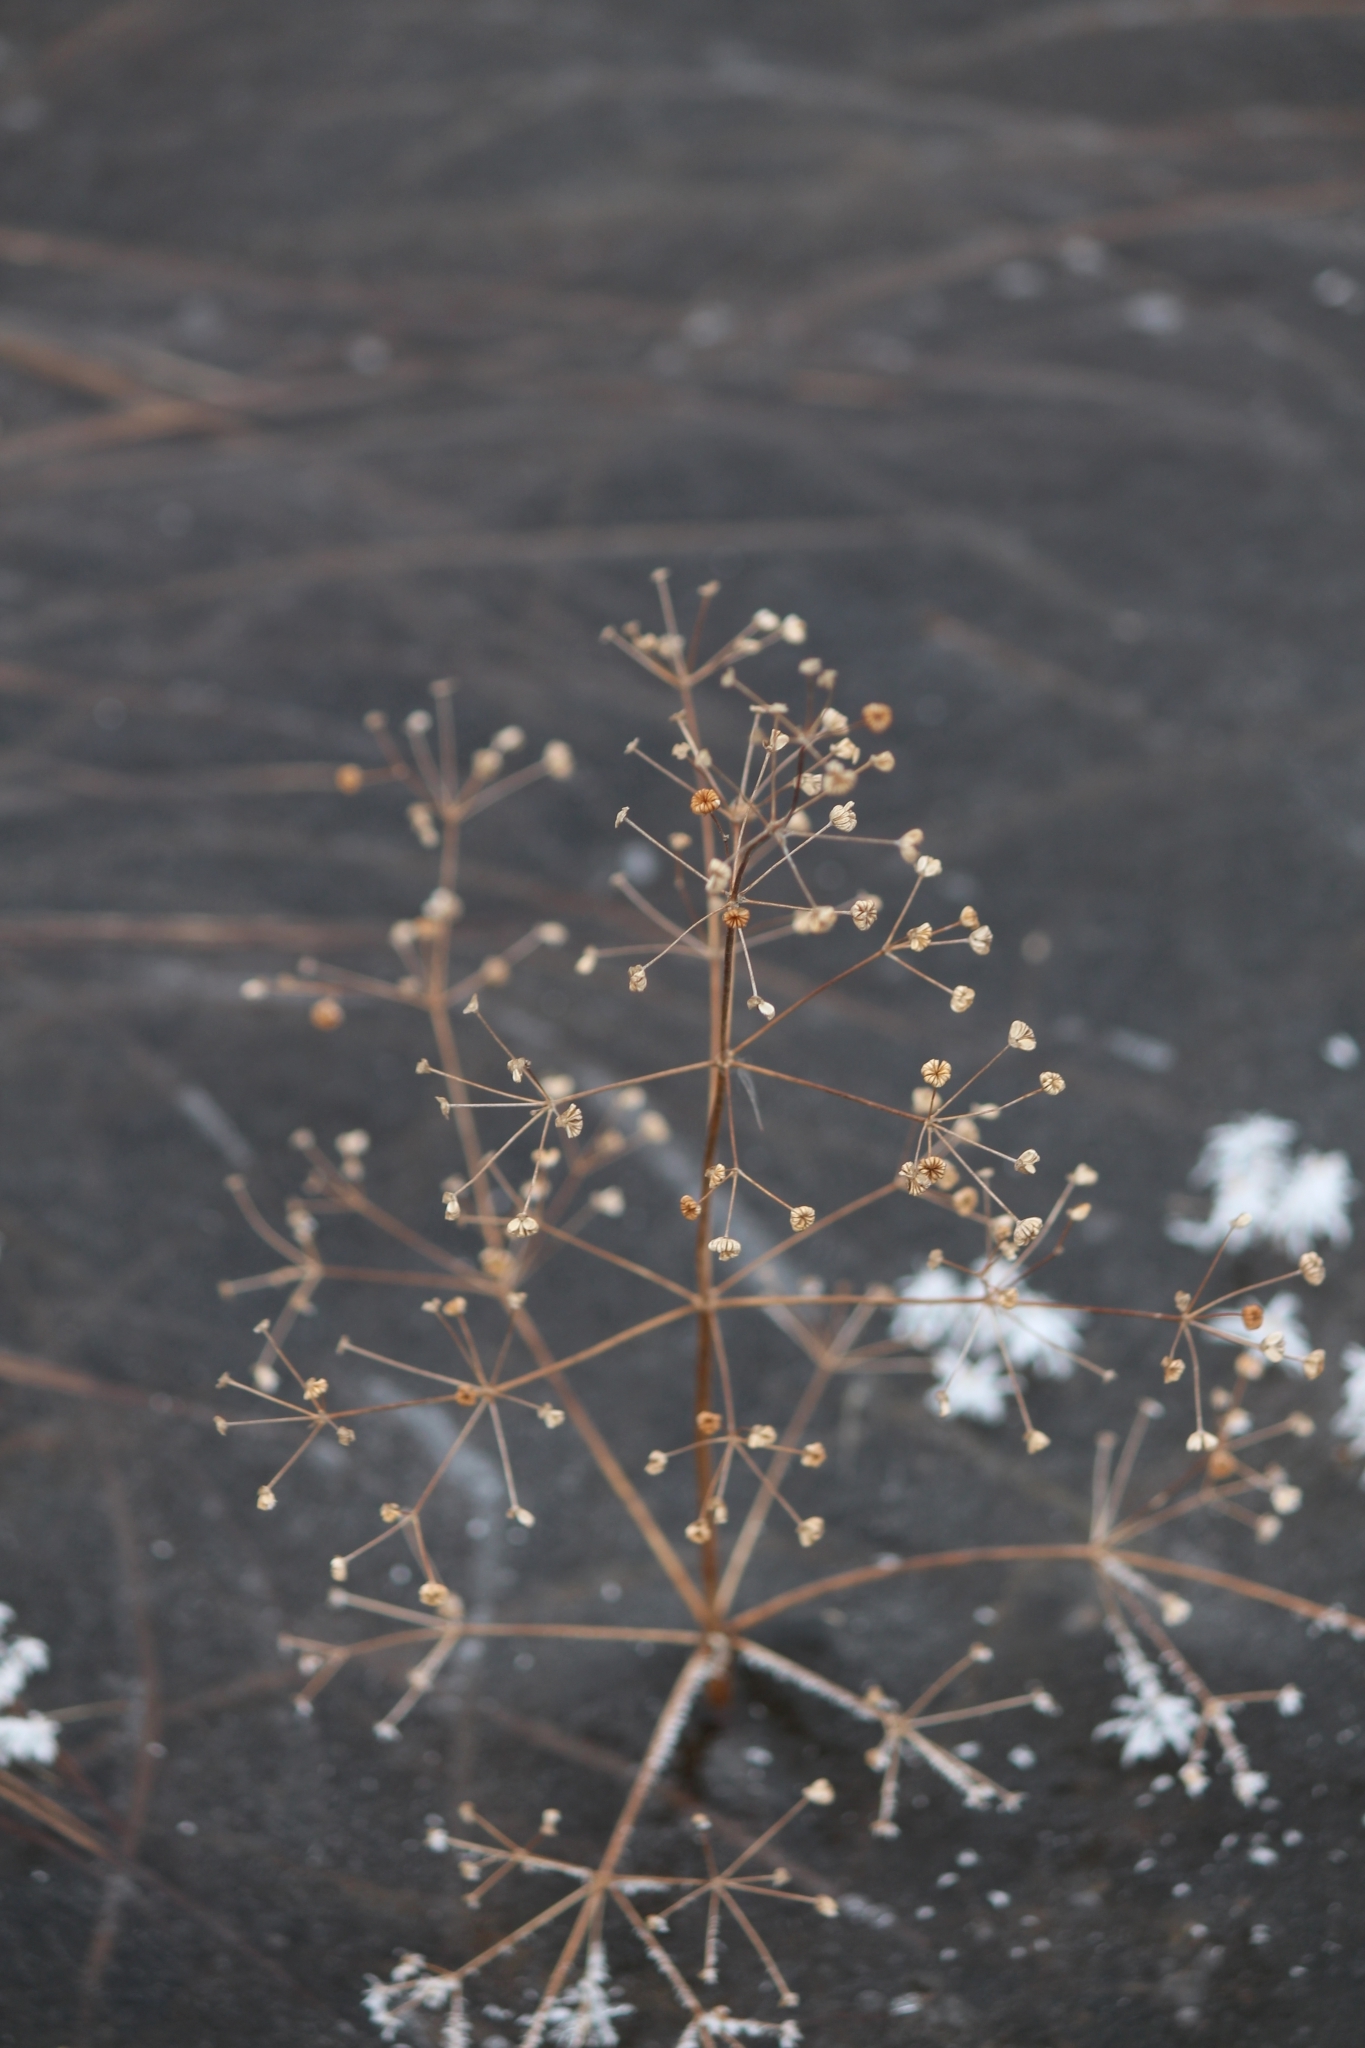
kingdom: Plantae
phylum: Tracheophyta
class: Liliopsida
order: Alismatales
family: Alismataceae
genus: Alisma
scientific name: Alisma plantago-aquatica
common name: Water-plantain
